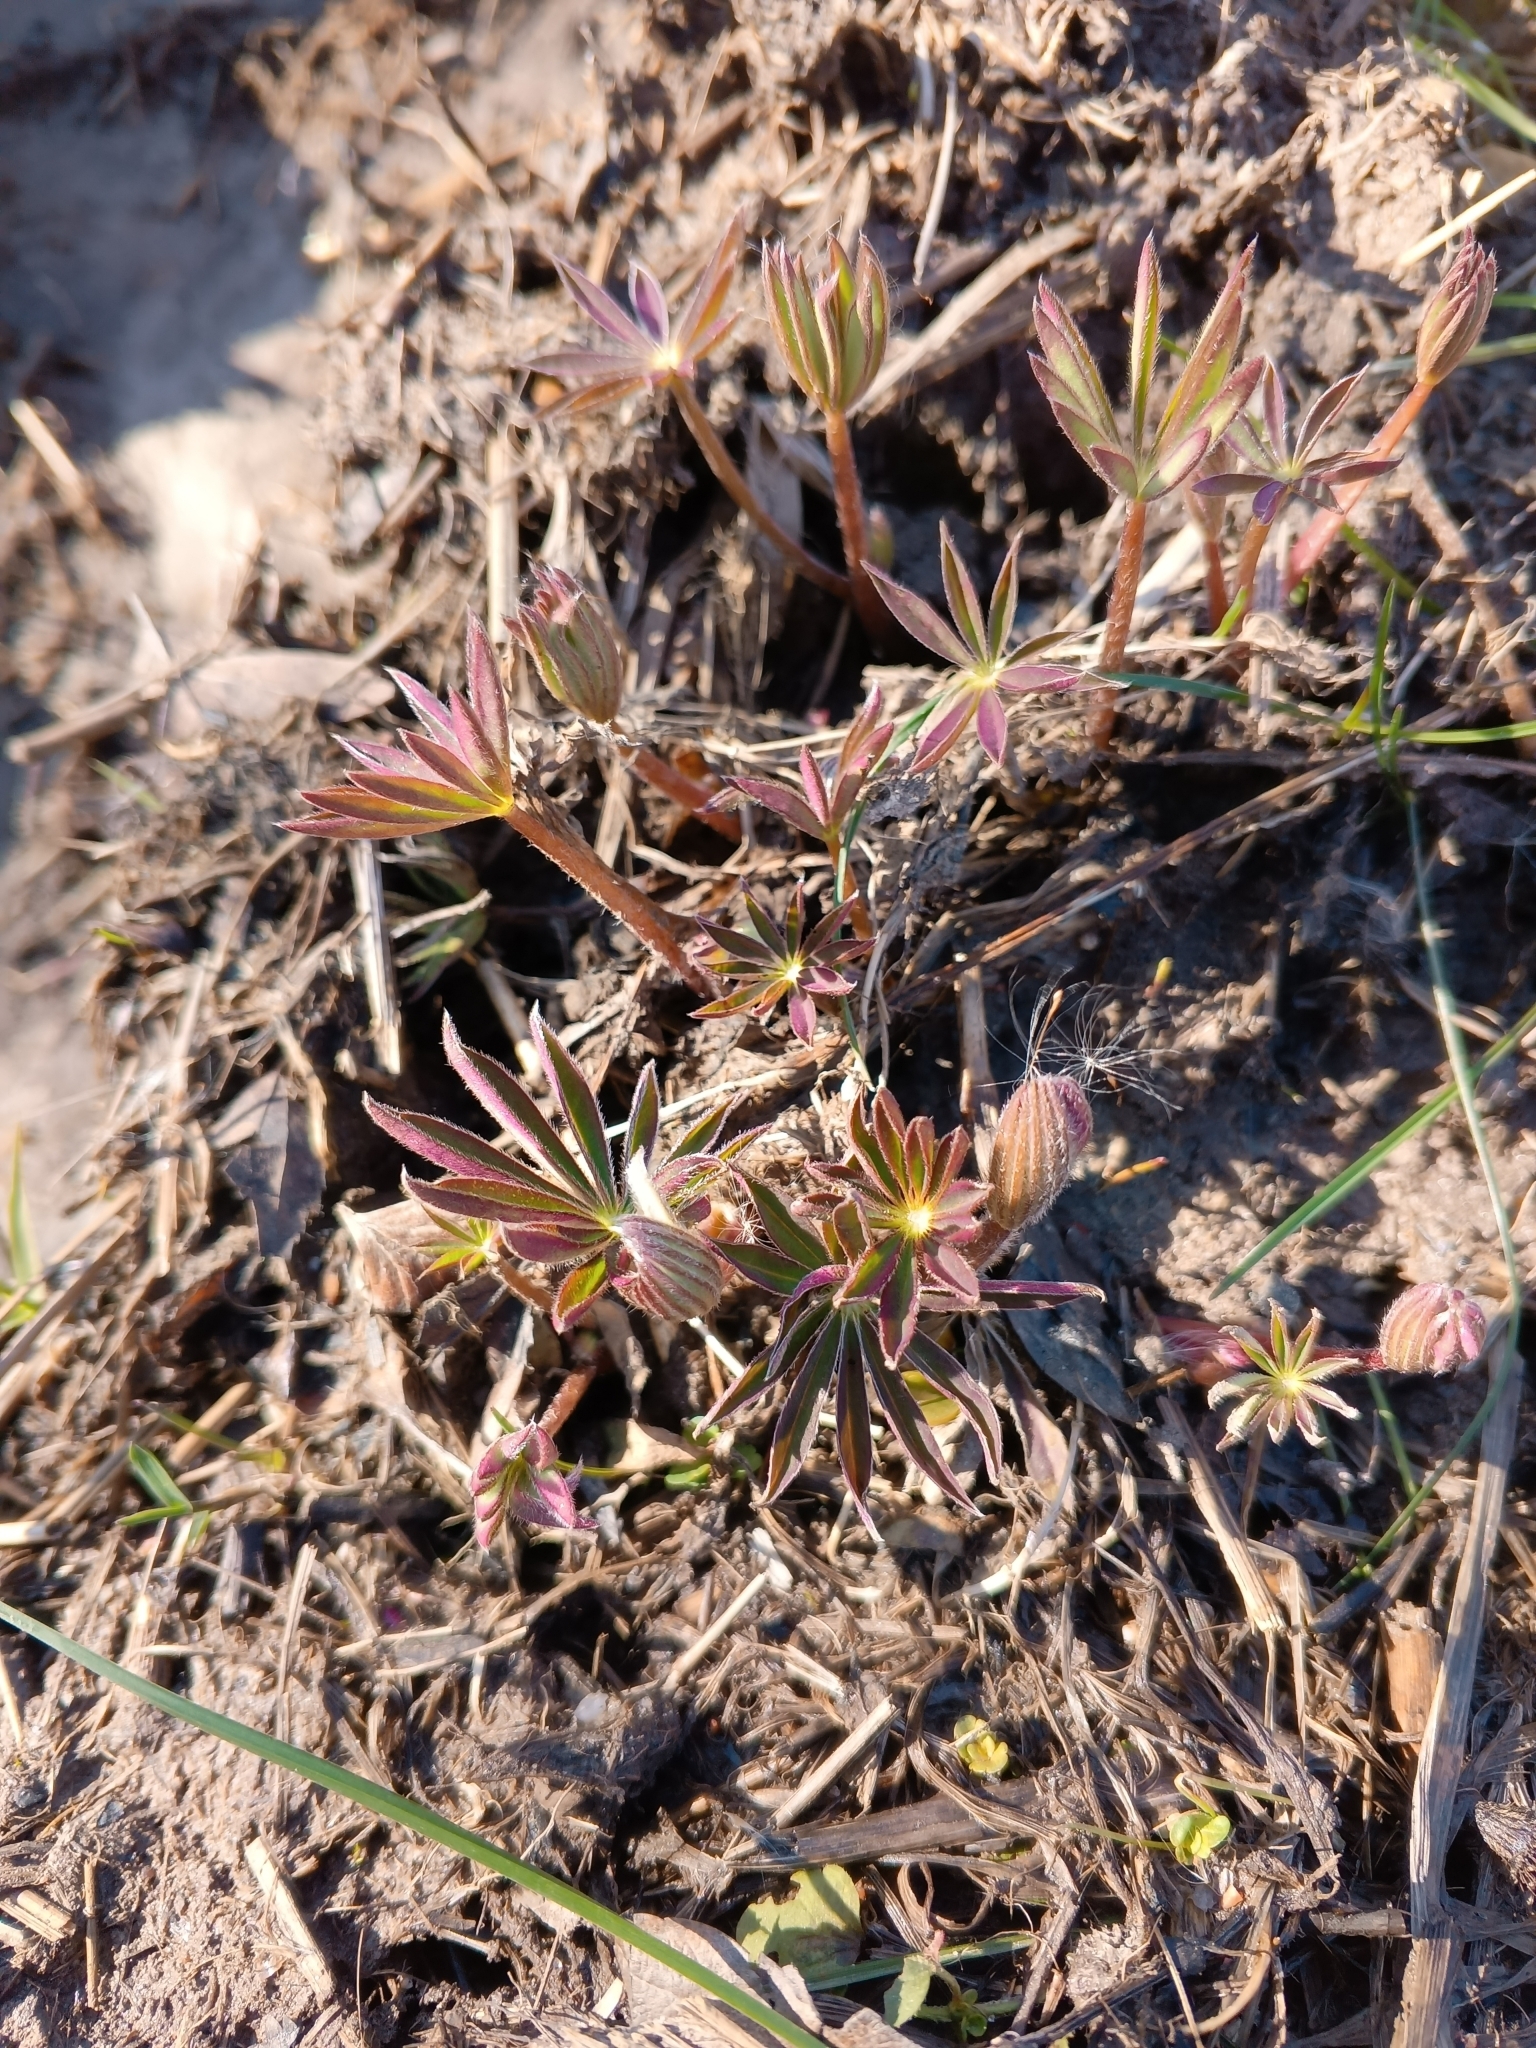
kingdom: Plantae
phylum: Tracheophyta
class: Magnoliopsida
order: Fabales
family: Fabaceae
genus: Lupinus
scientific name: Lupinus polyphyllus
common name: Garden lupin
